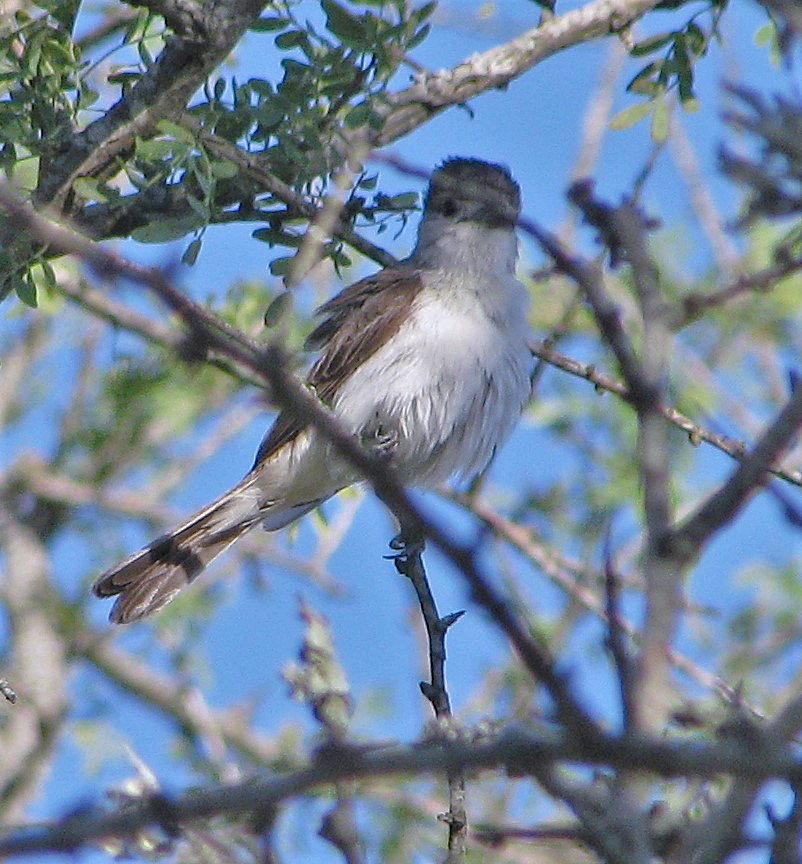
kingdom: Animalia
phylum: Chordata
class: Aves
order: Passeriformes
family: Cotingidae
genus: Xenopsaris
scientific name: Xenopsaris albinucha
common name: White-naped xenopsaris
